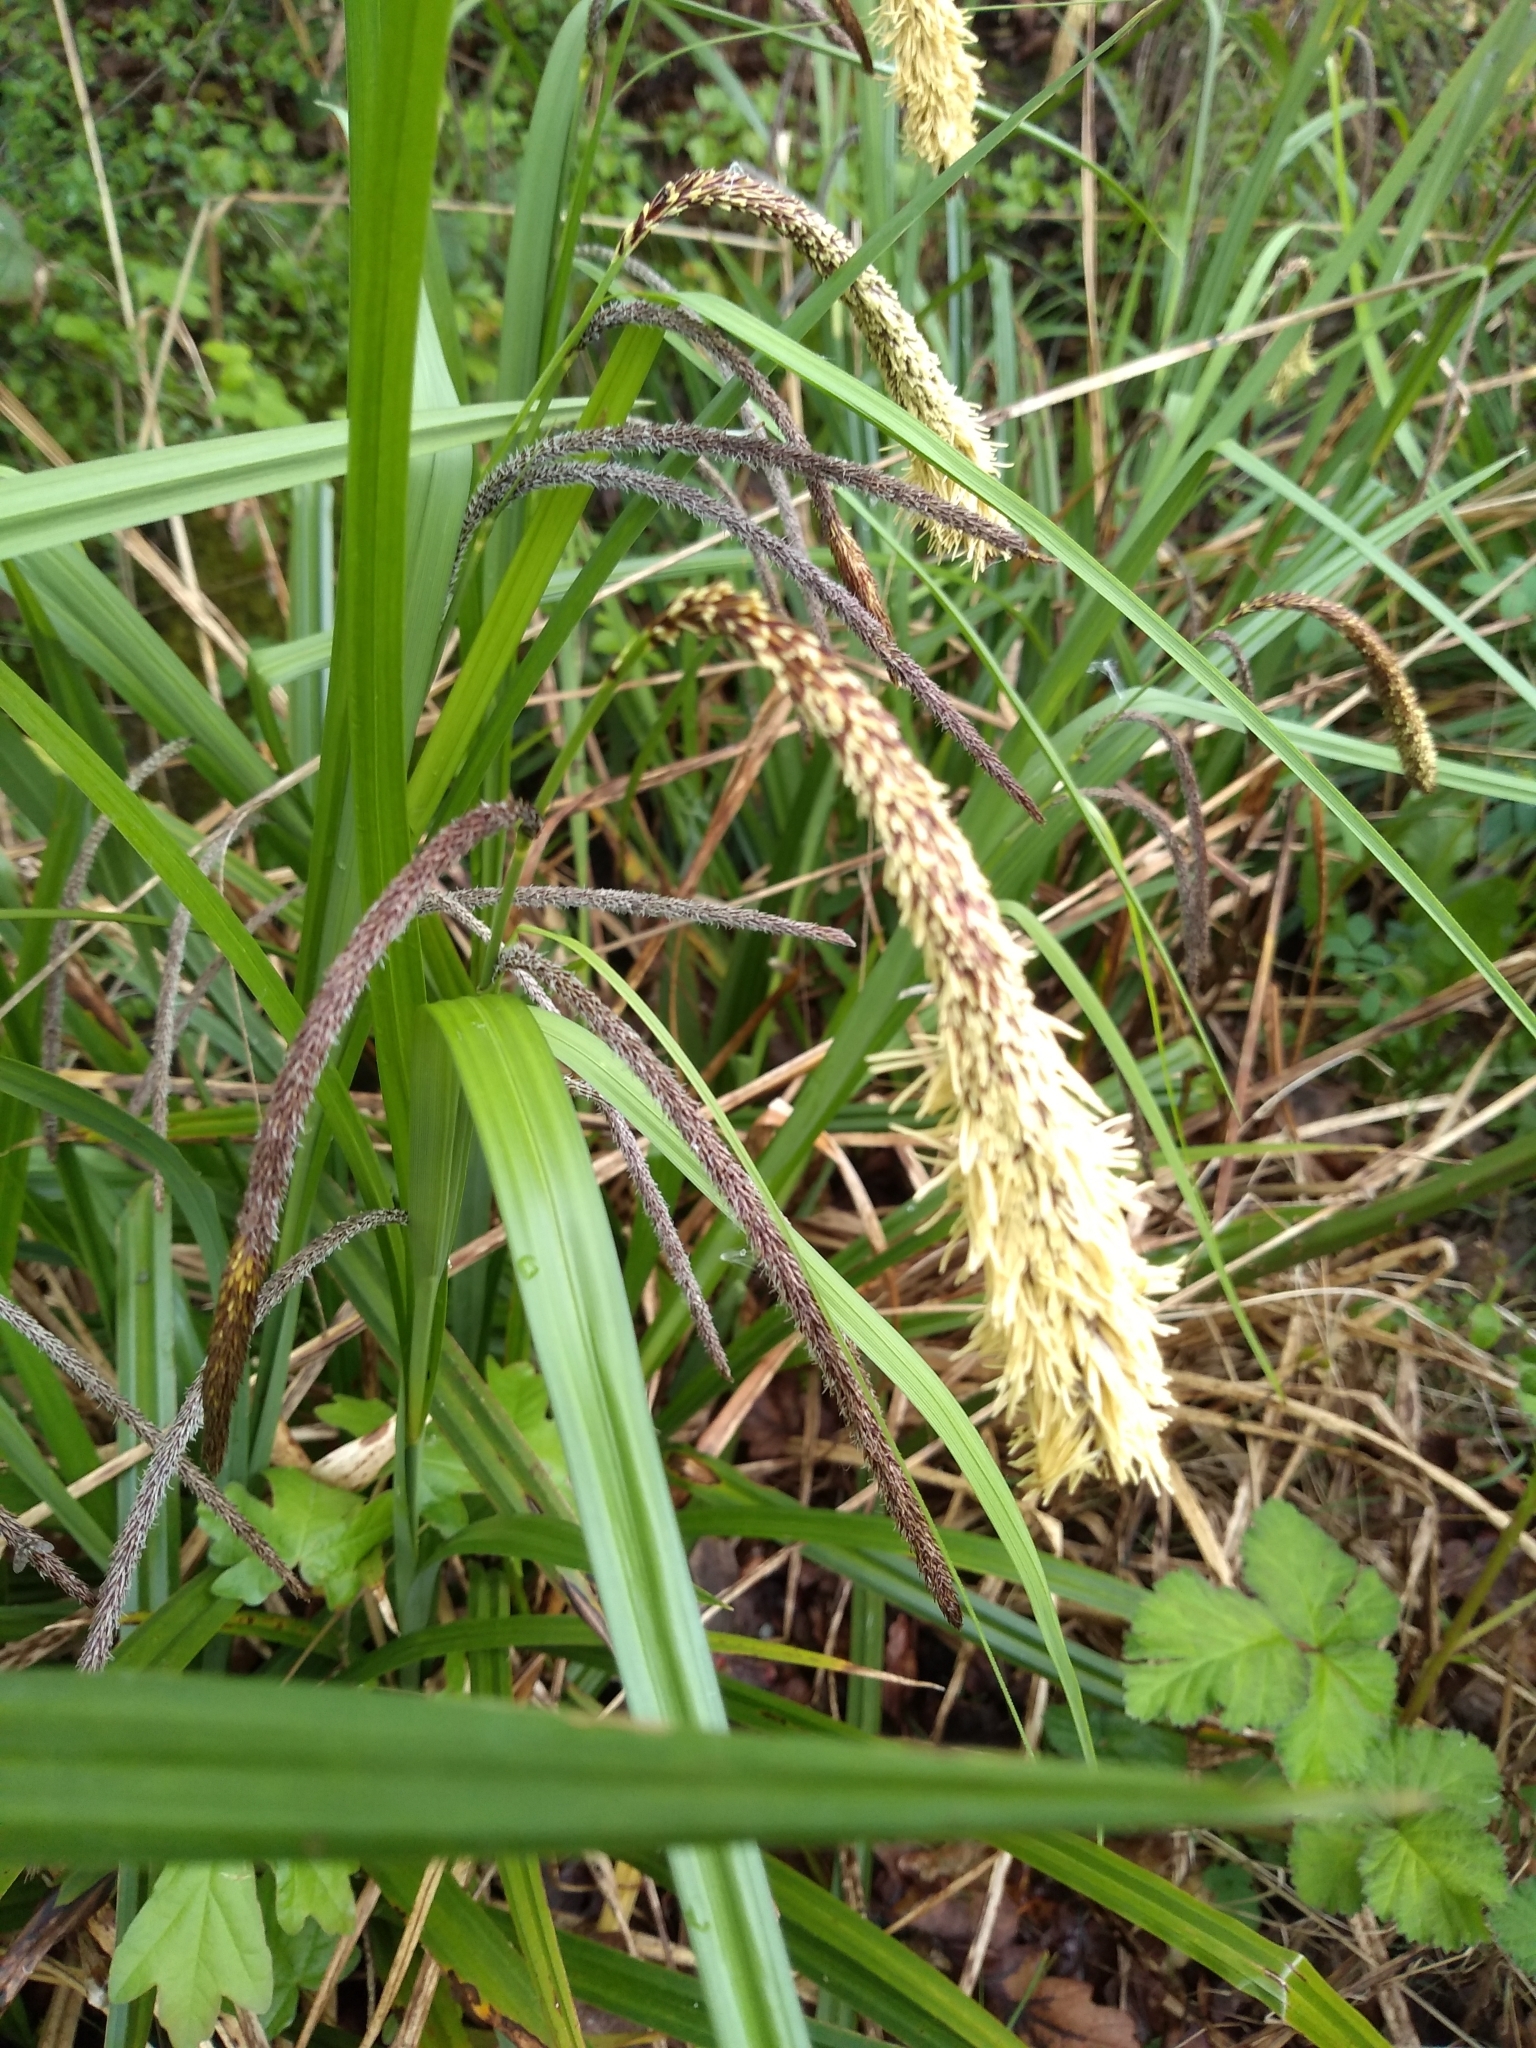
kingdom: Plantae
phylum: Tracheophyta
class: Liliopsida
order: Poales
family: Cyperaceae
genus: Carex
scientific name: Carex pendula
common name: Pendulous sedge
